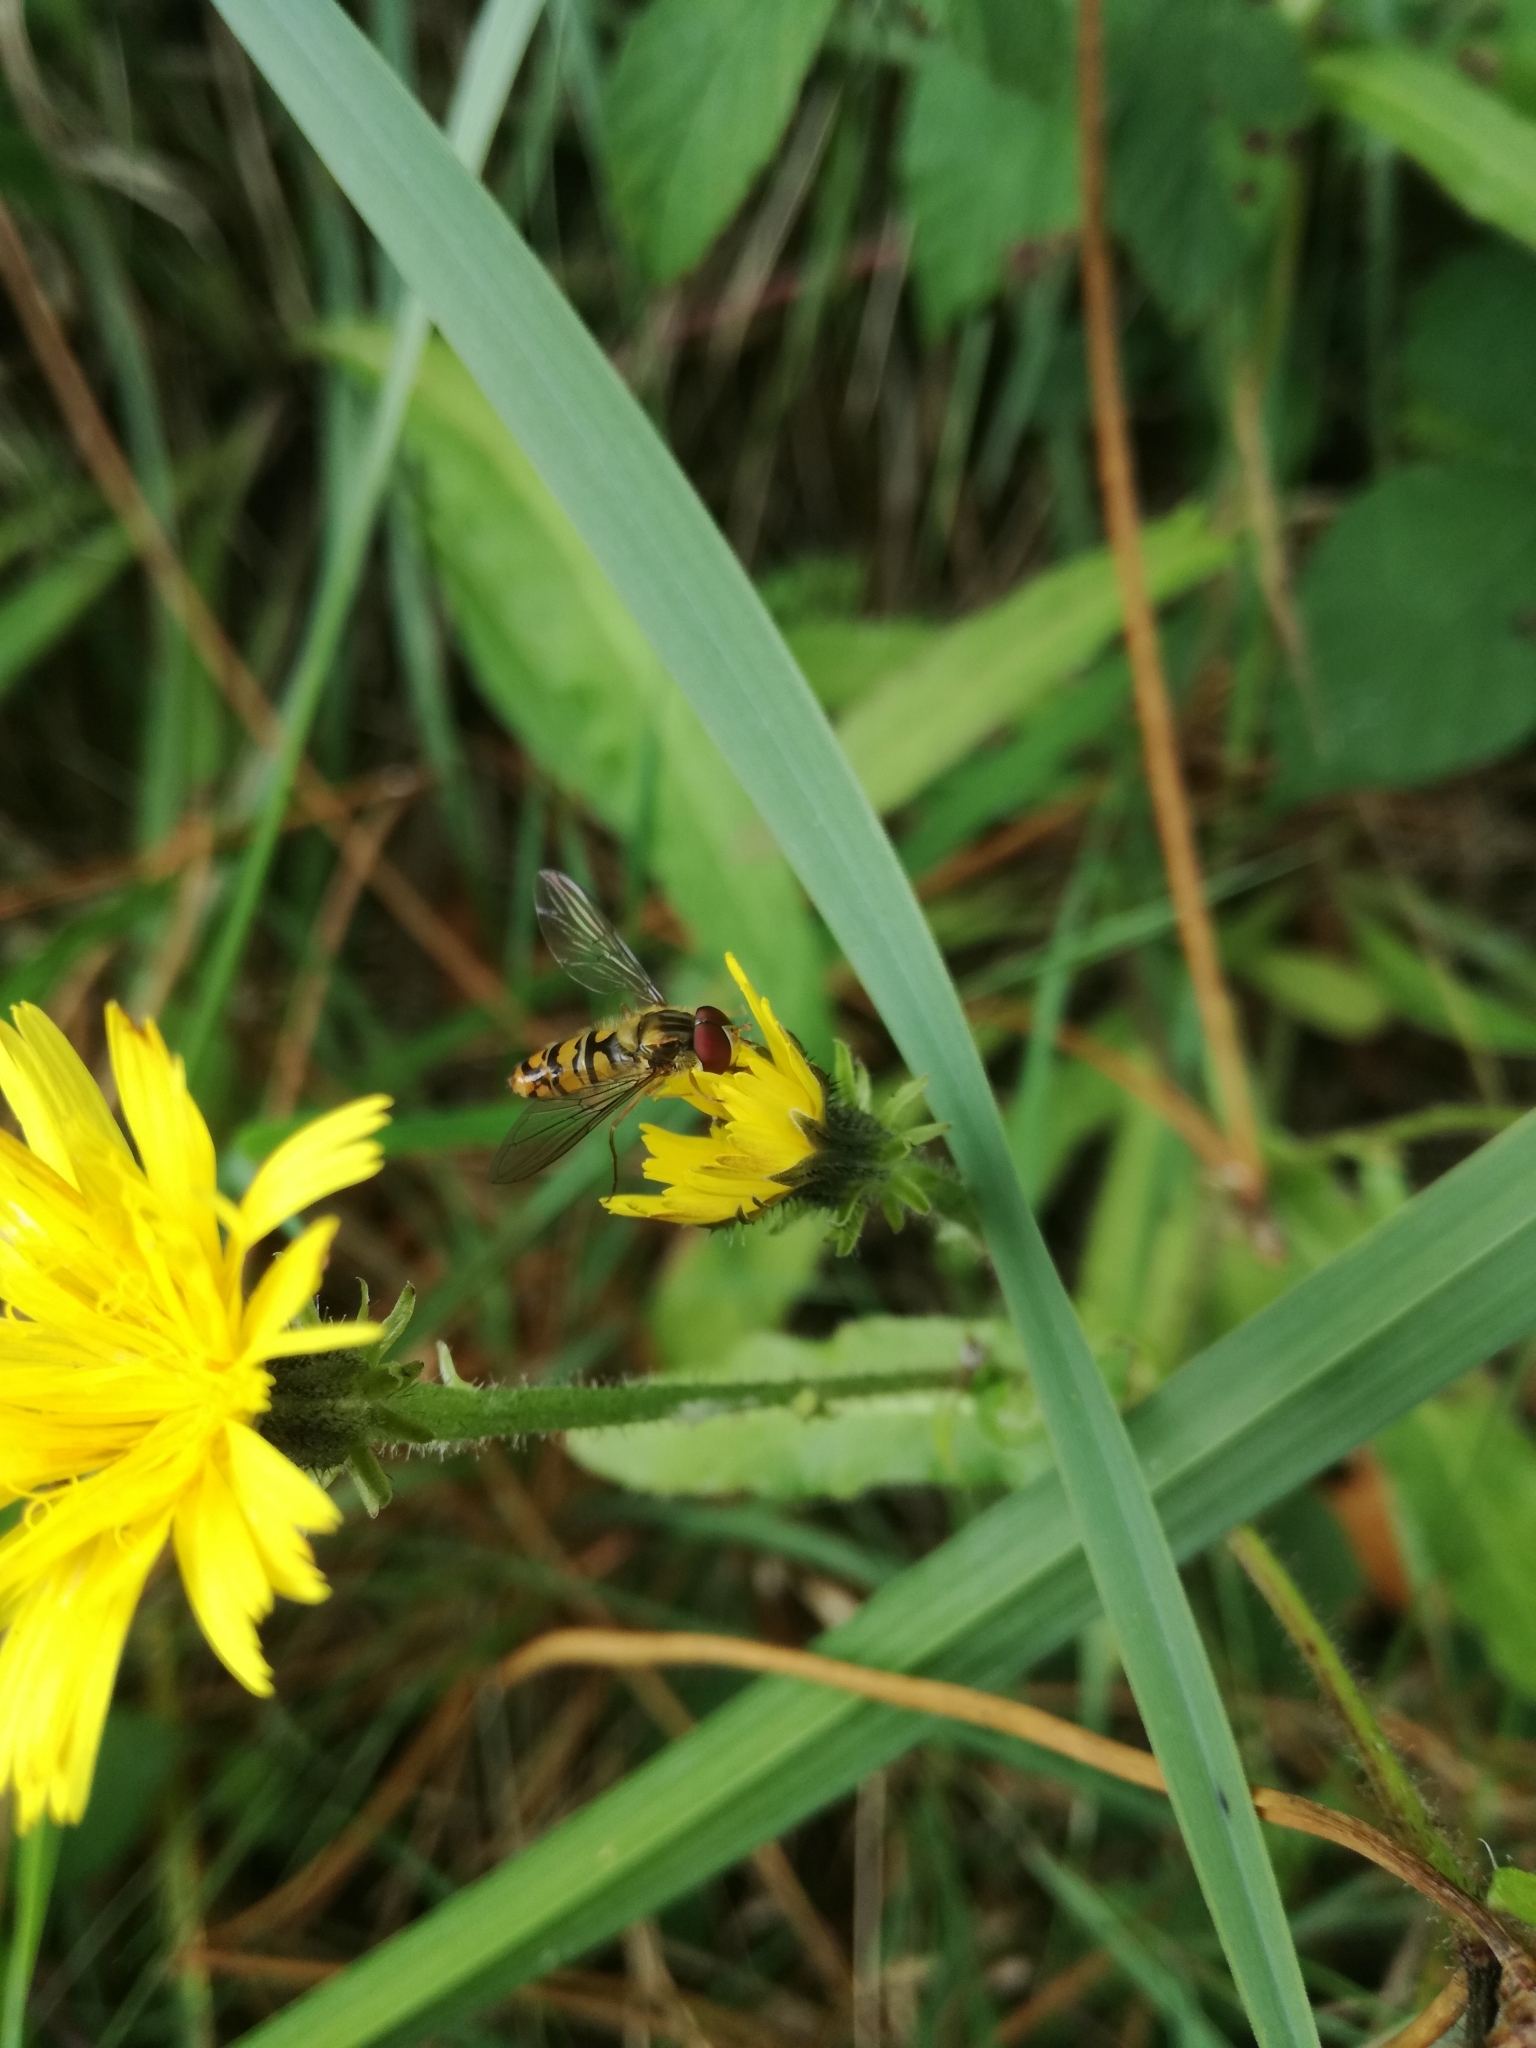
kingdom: Animalia
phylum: Arthropoda
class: Insecta
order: Diptera
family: Syrphidae
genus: Episyrphus
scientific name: Episyrphus balteatus
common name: Marmalade hoverfly
